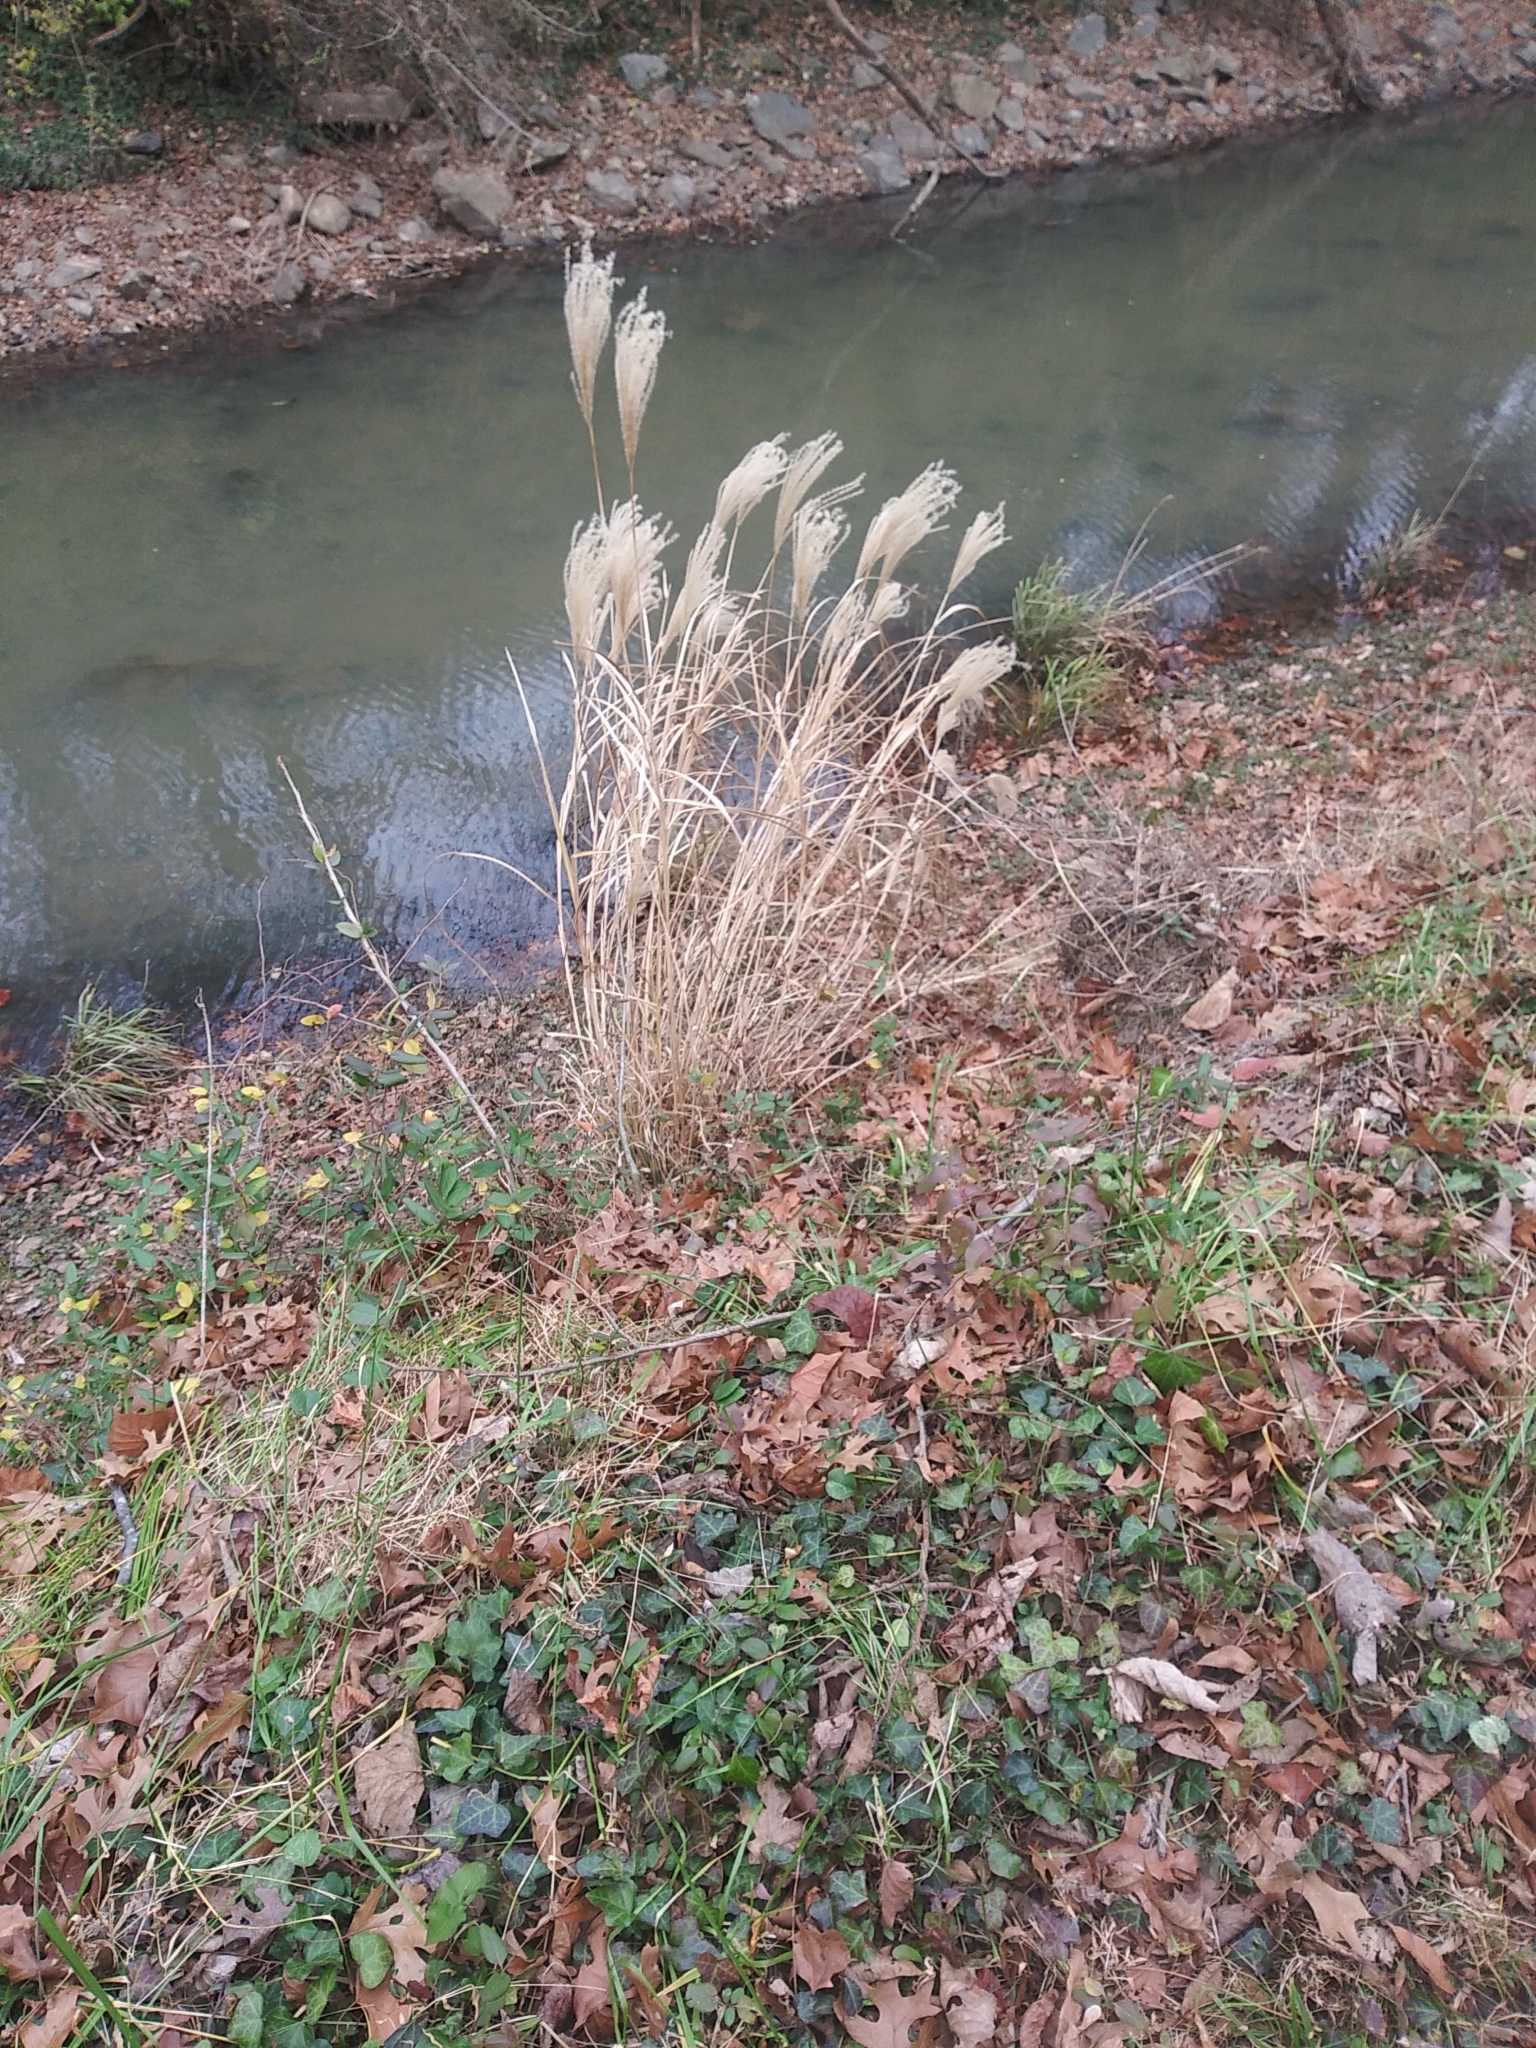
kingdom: Plantae
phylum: Tracheophyta
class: Liliopsida
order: Poales
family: Poaceae
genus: Miscanthus
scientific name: Miscanthus sinensis
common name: Chinese silvergrass
